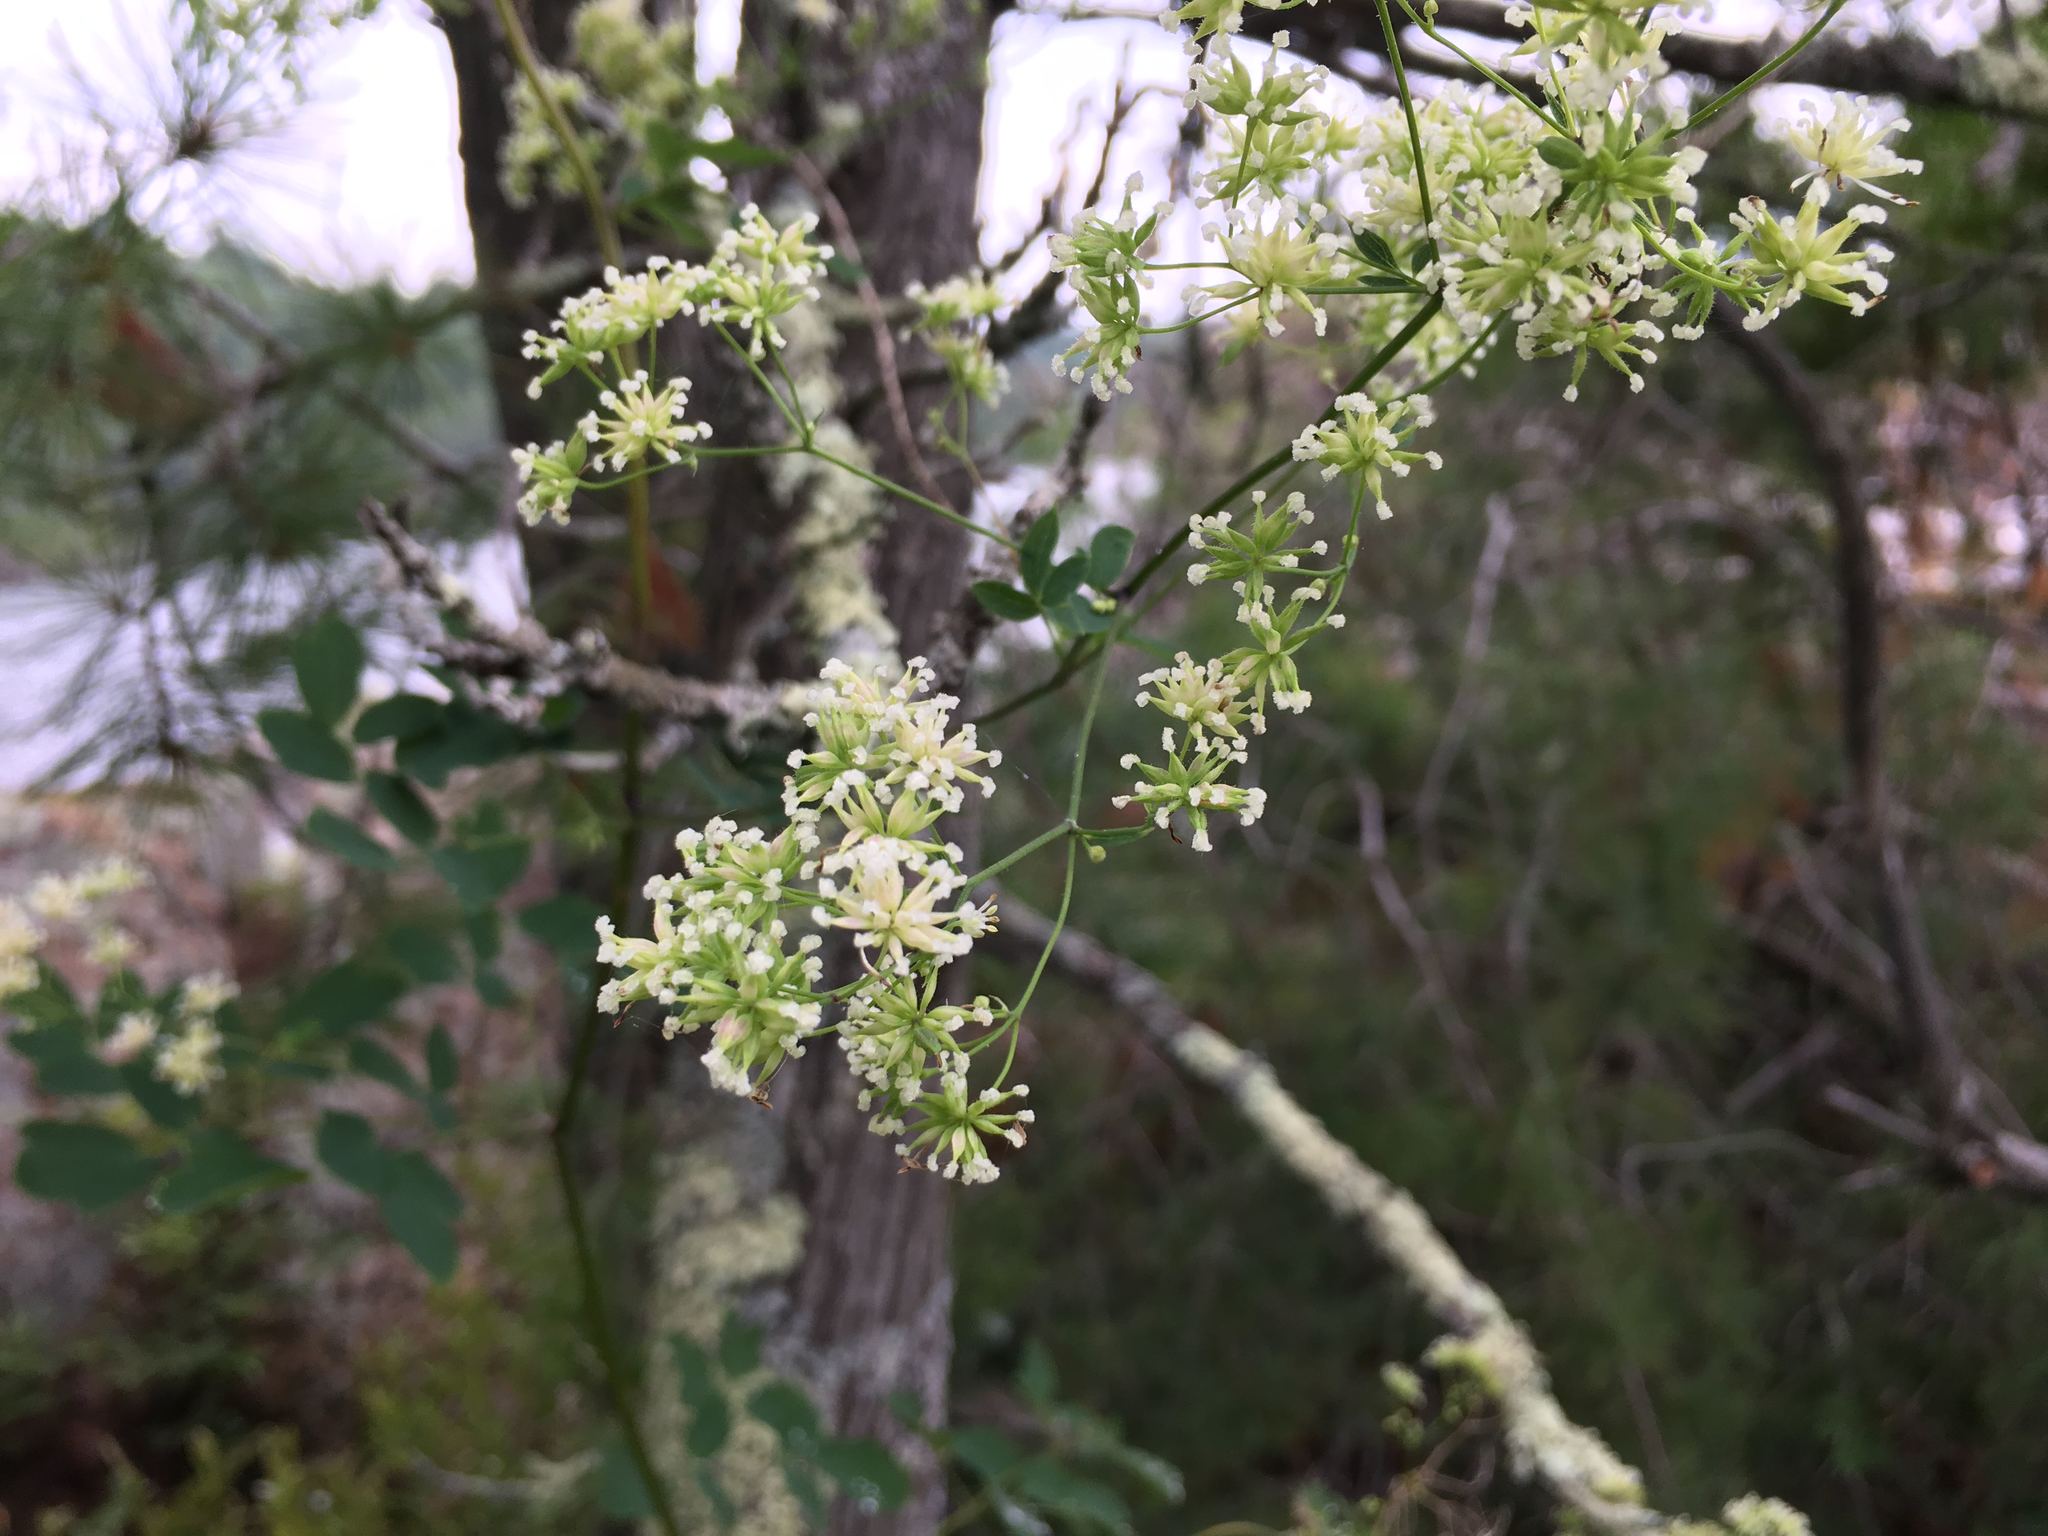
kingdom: Plantae
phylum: Tracheophyta
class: Magnoliopsida
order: Ranunculales
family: Ranunculaceae
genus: Thalictrum
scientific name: Thalictrum pubescens
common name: King-of-the-meadow
